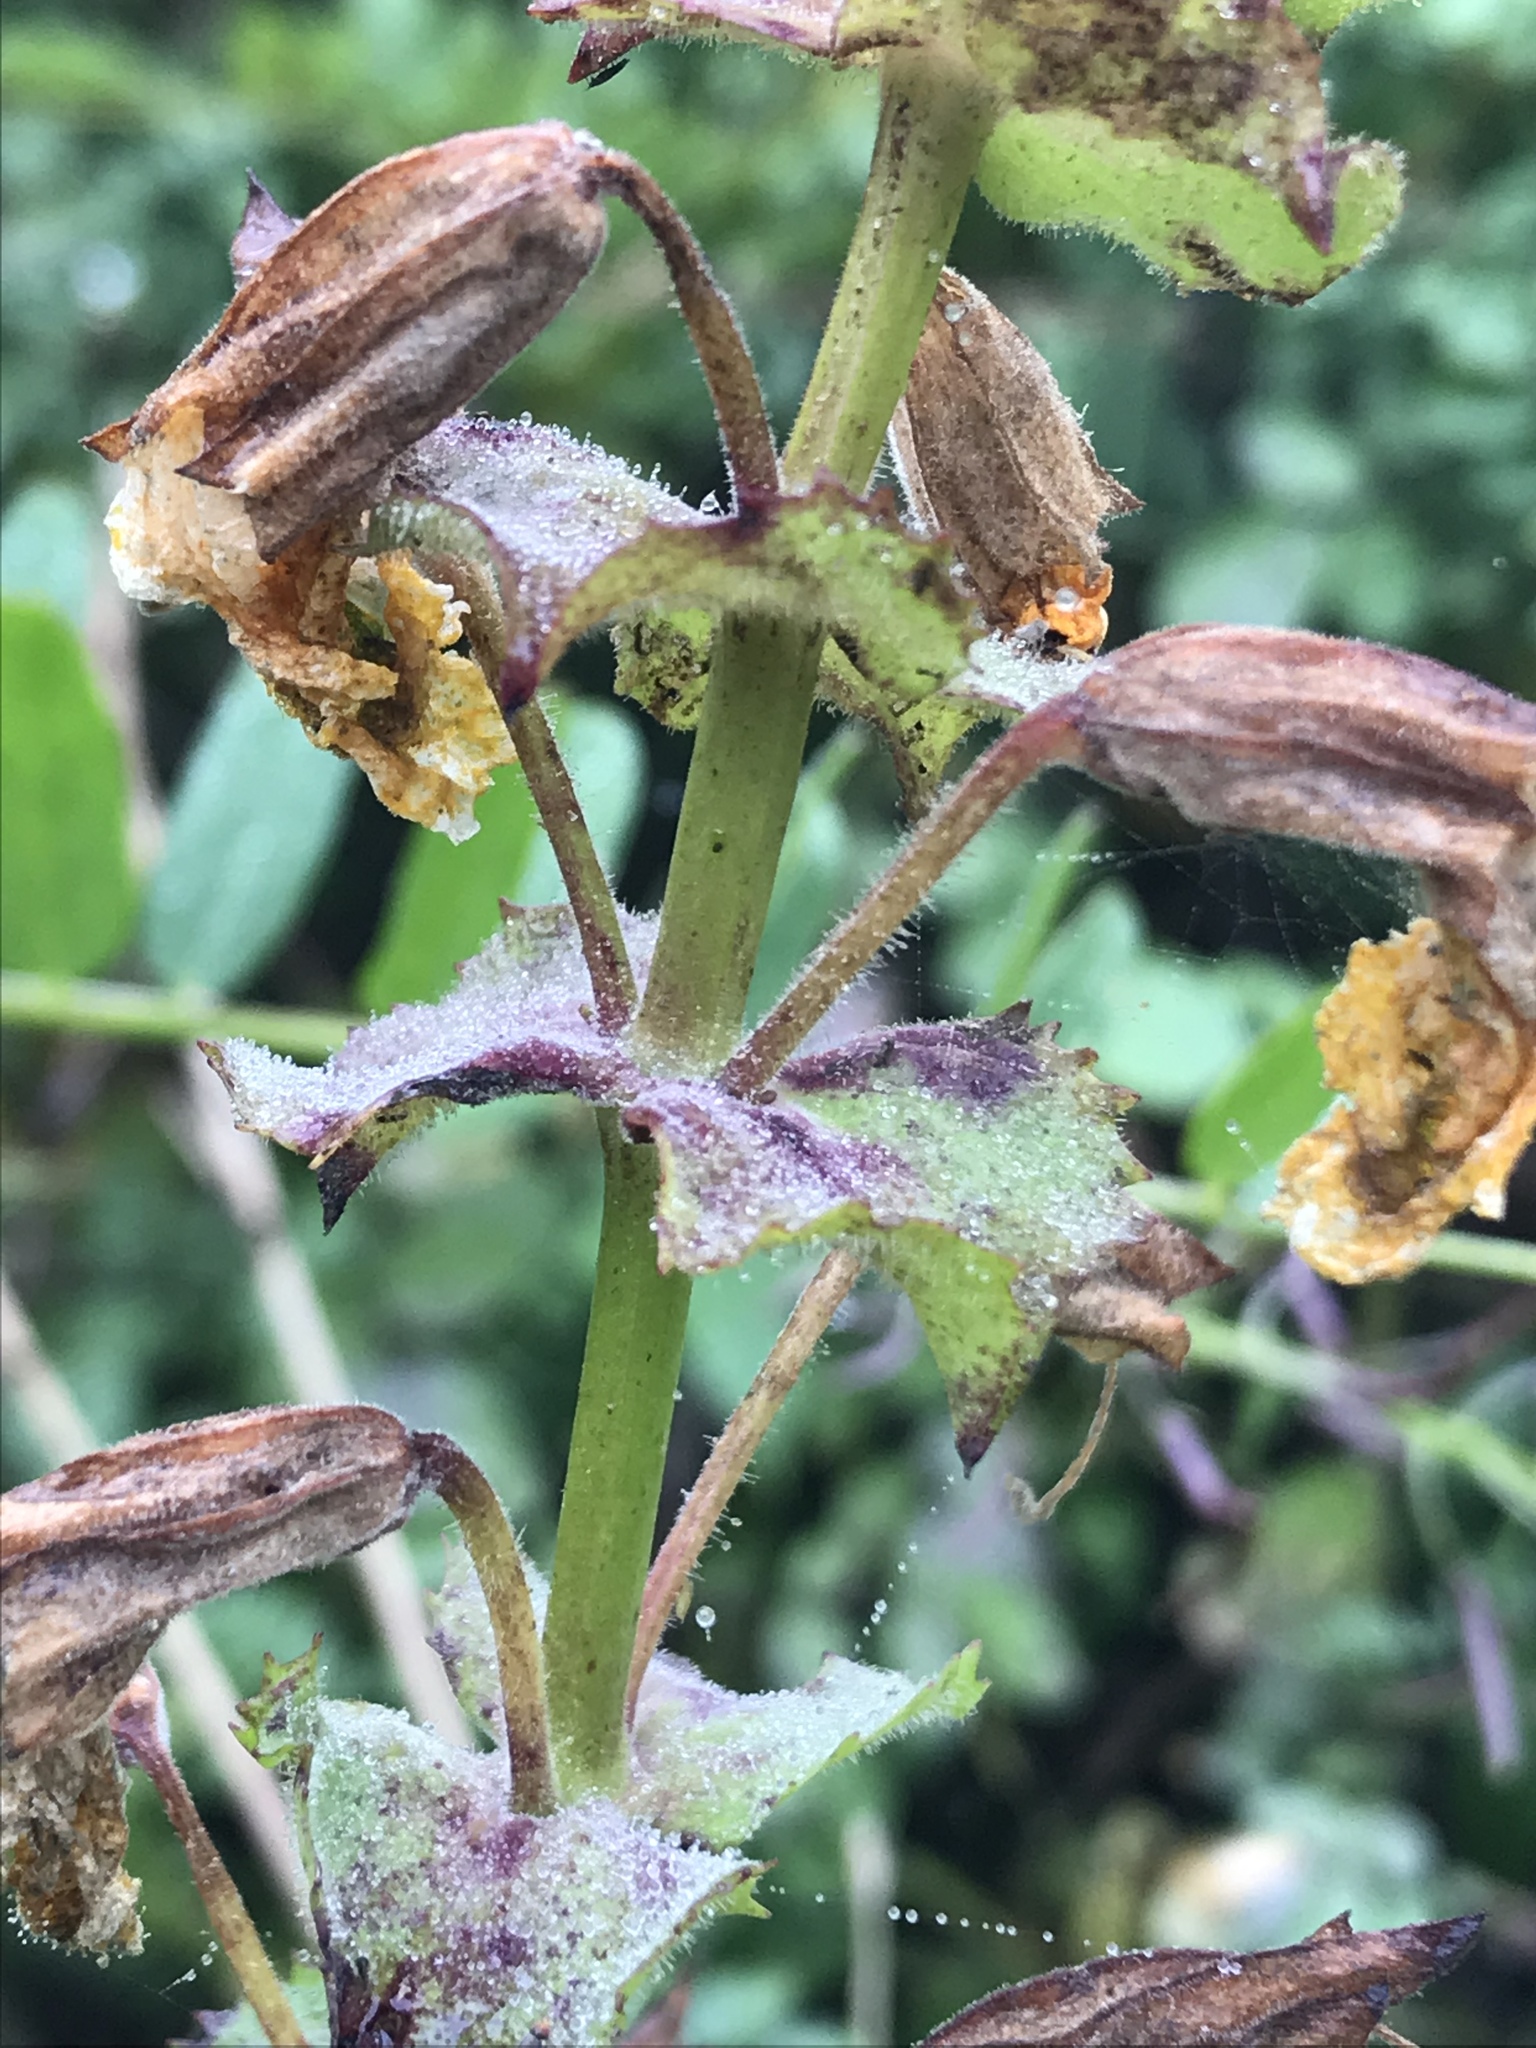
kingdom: Plantae
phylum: Tracheophyta
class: Magnoliopsida
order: Lamiales
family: Phrymaceae
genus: Erythranthe
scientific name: Erythranthe guttata
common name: Monkeyflower
